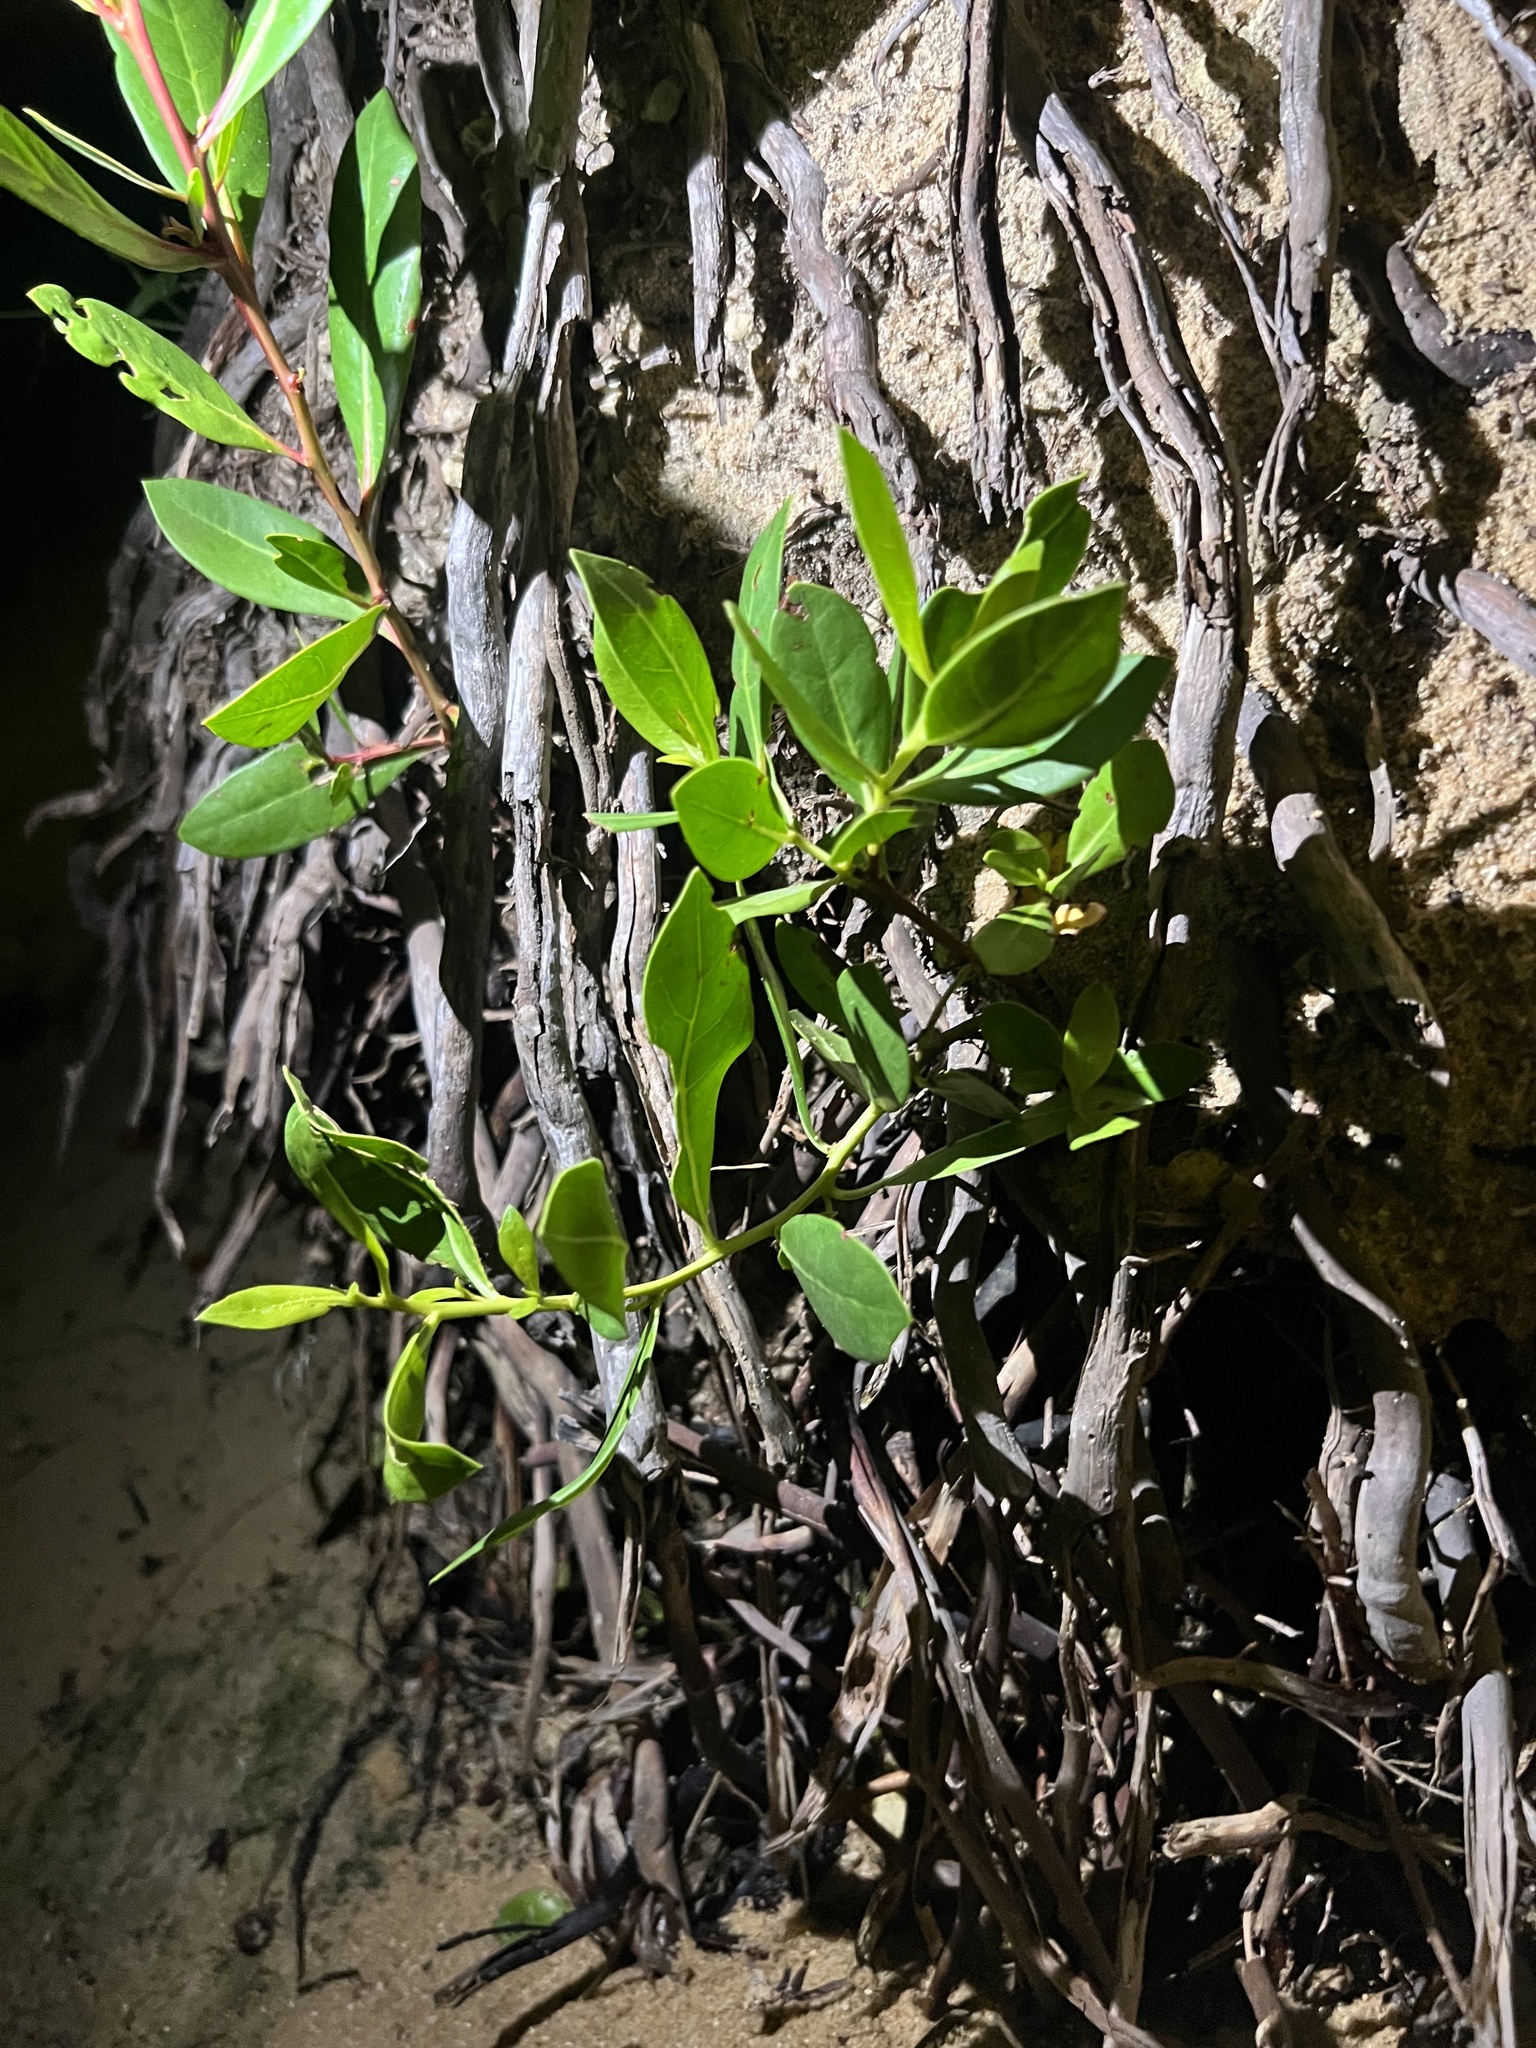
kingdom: Plantae
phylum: Tracheophyta
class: Magnoliopsida
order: Myrtales
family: Combretaceae
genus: Conocarpus
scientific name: Conocarpus erectus
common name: Button mangrove
